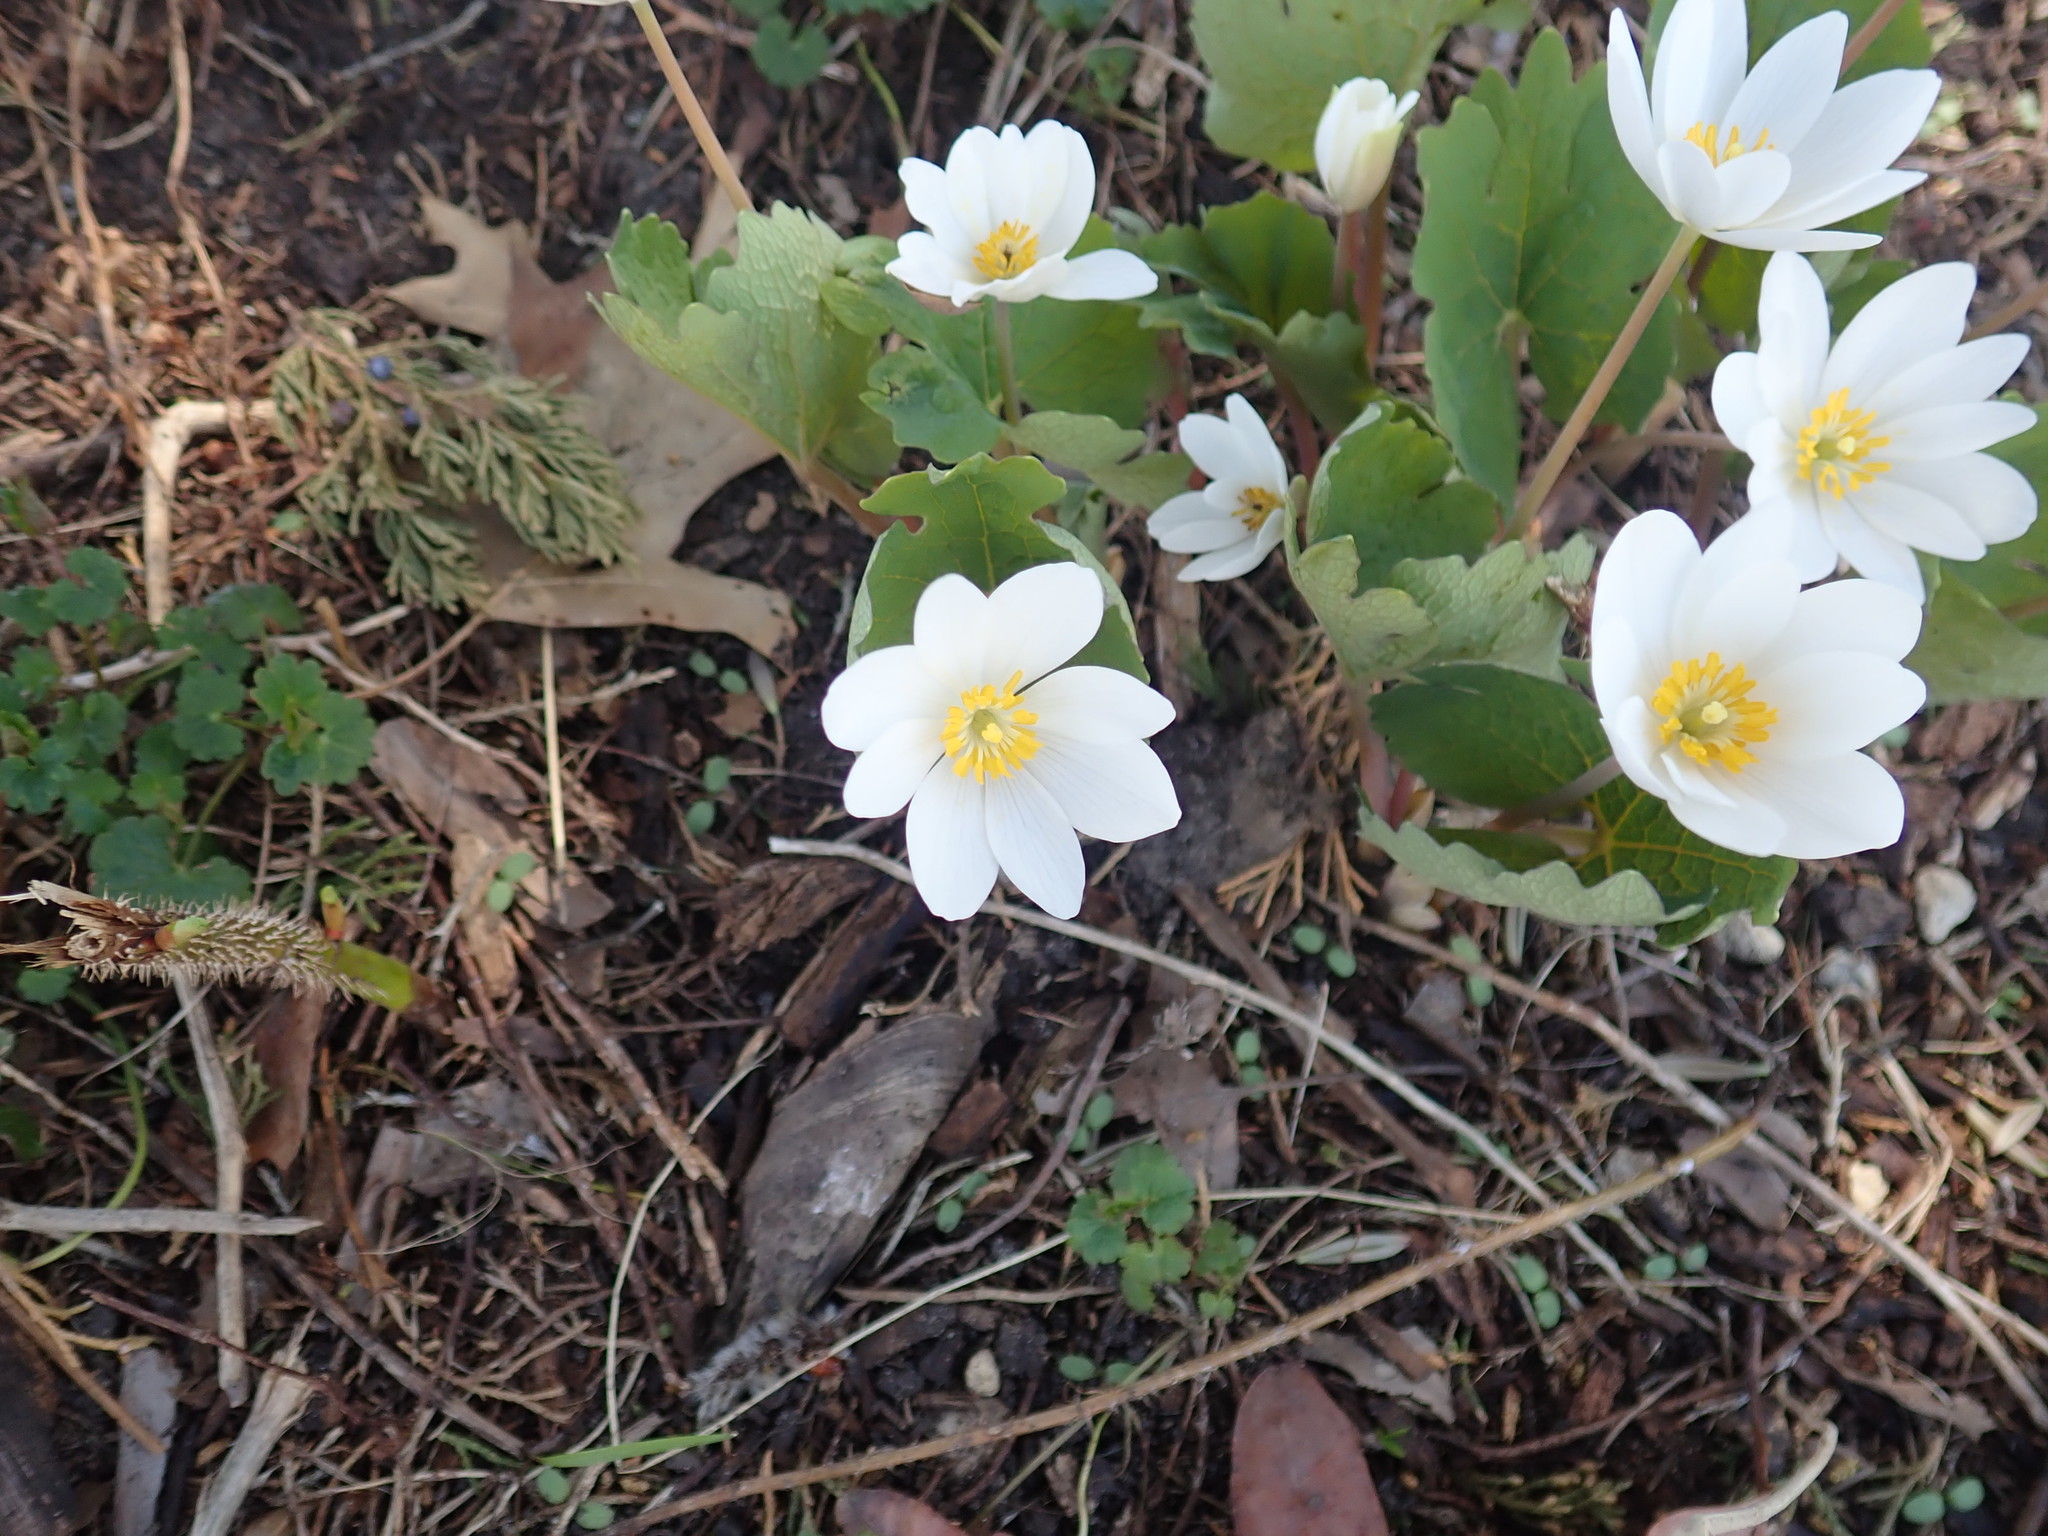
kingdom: Plantae
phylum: Tracheophyta
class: Magnoliopsida
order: Ranunculales
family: Papaveraceae
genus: Sanguinaria
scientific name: Sanguinaria canadensis
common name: Bloodroot
